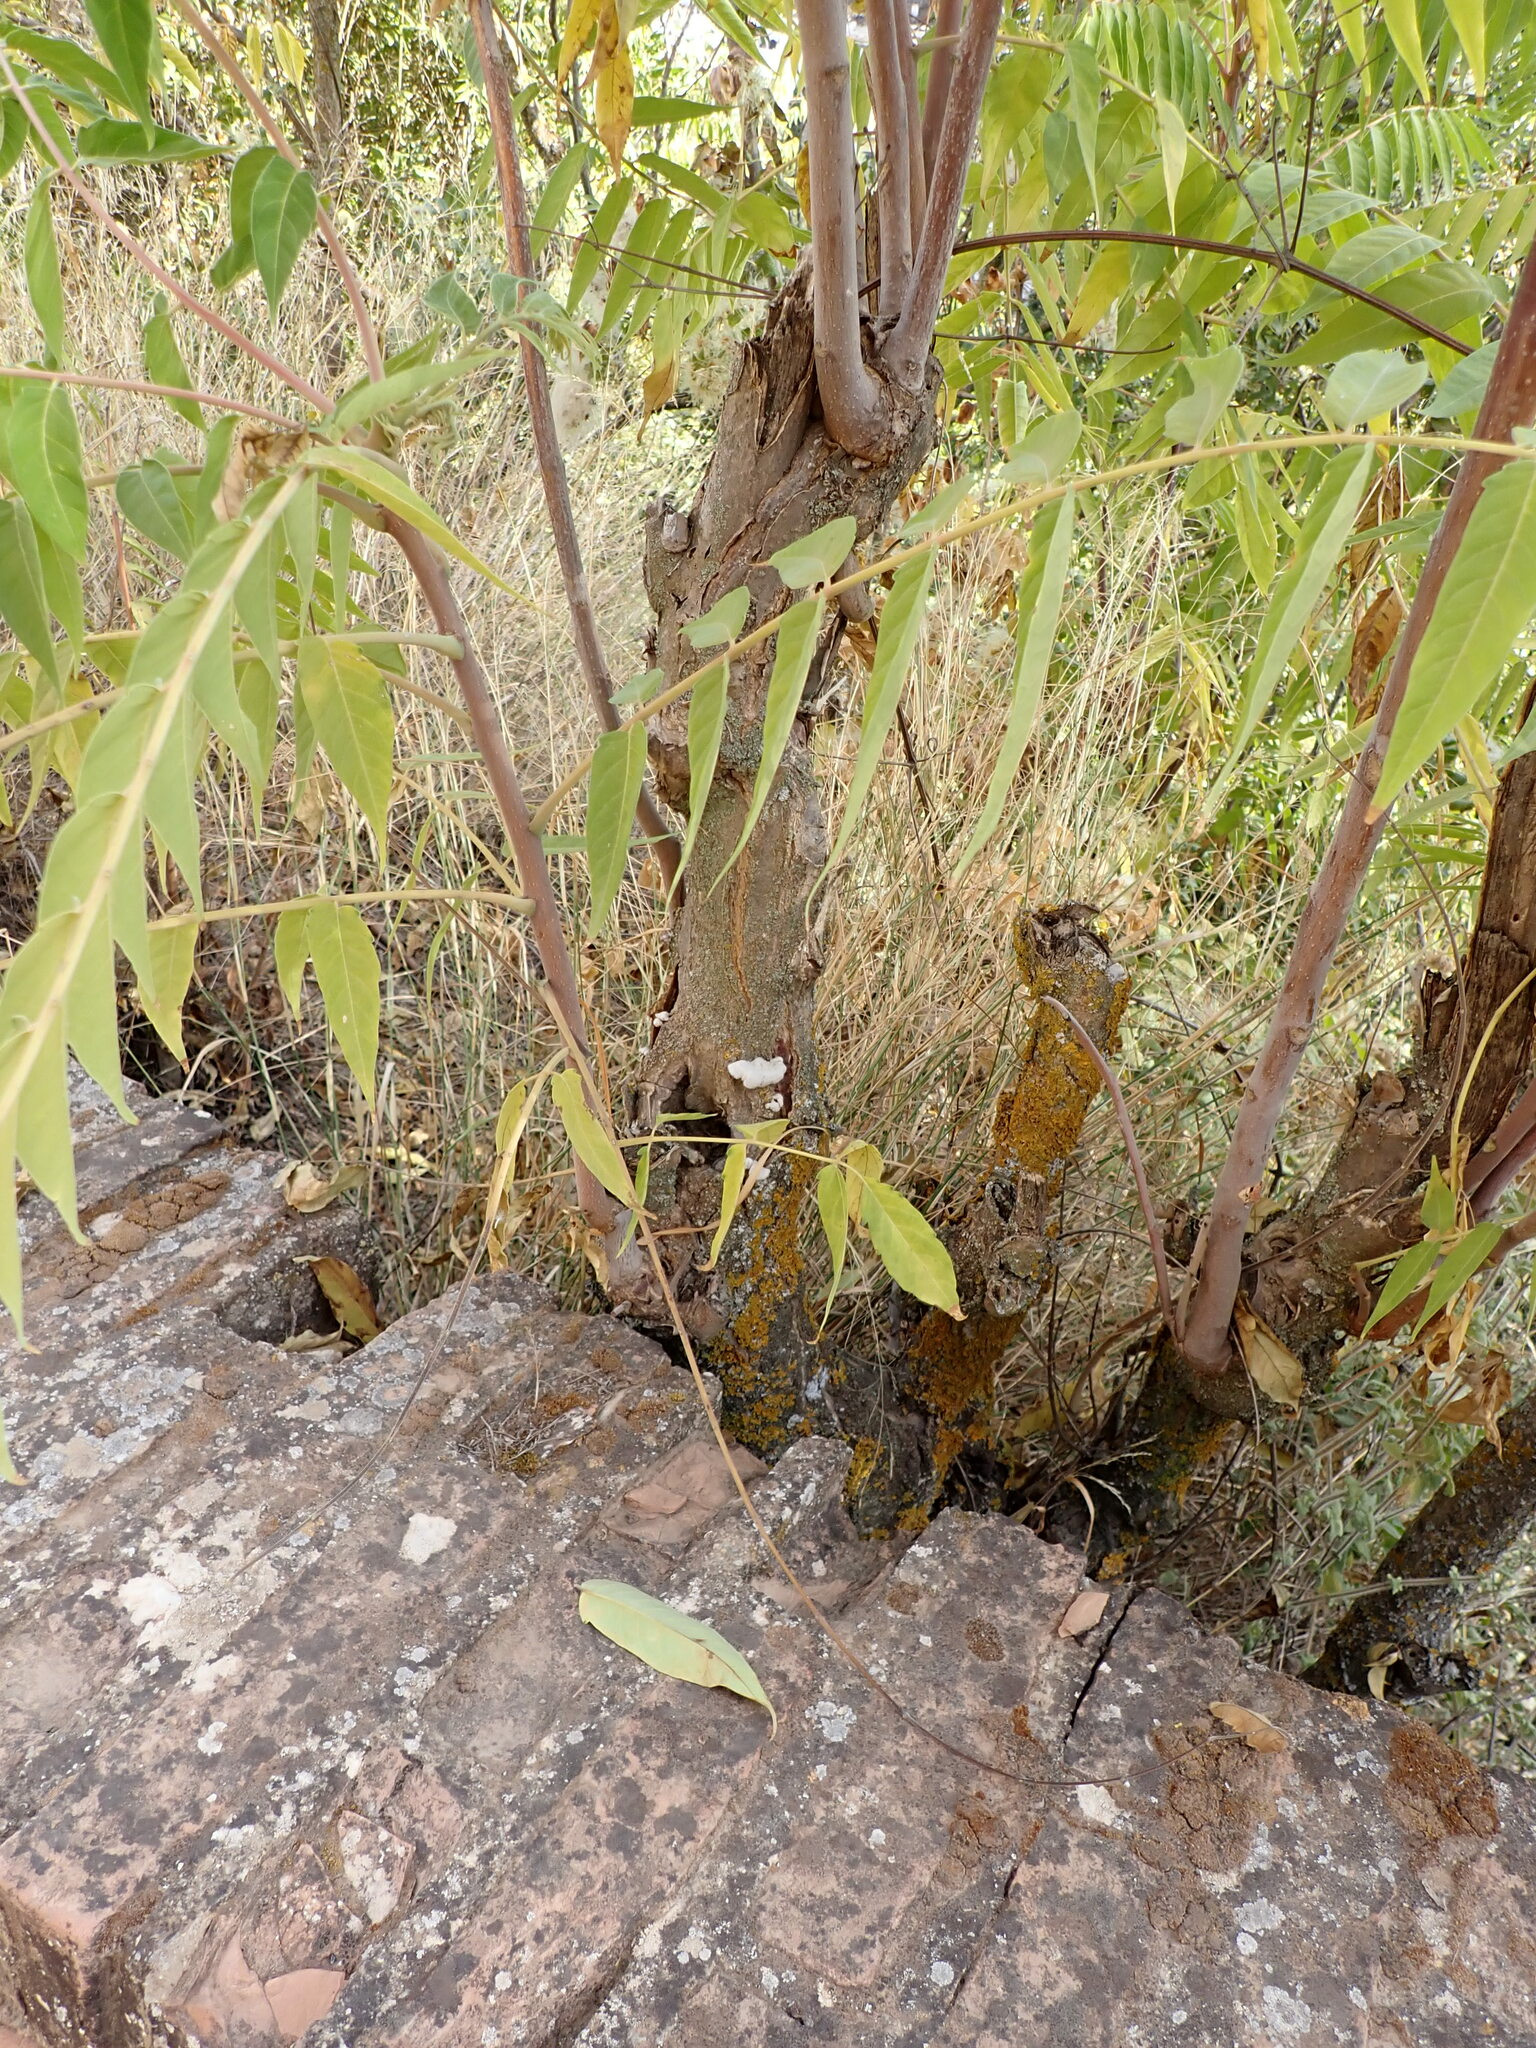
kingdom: Fungi
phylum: Basidiomycota
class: Agaricomycetes
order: Agaricales
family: Schizophyllaceae
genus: Schizophyllum
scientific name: Schizophyllum commune
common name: Common porecrust
